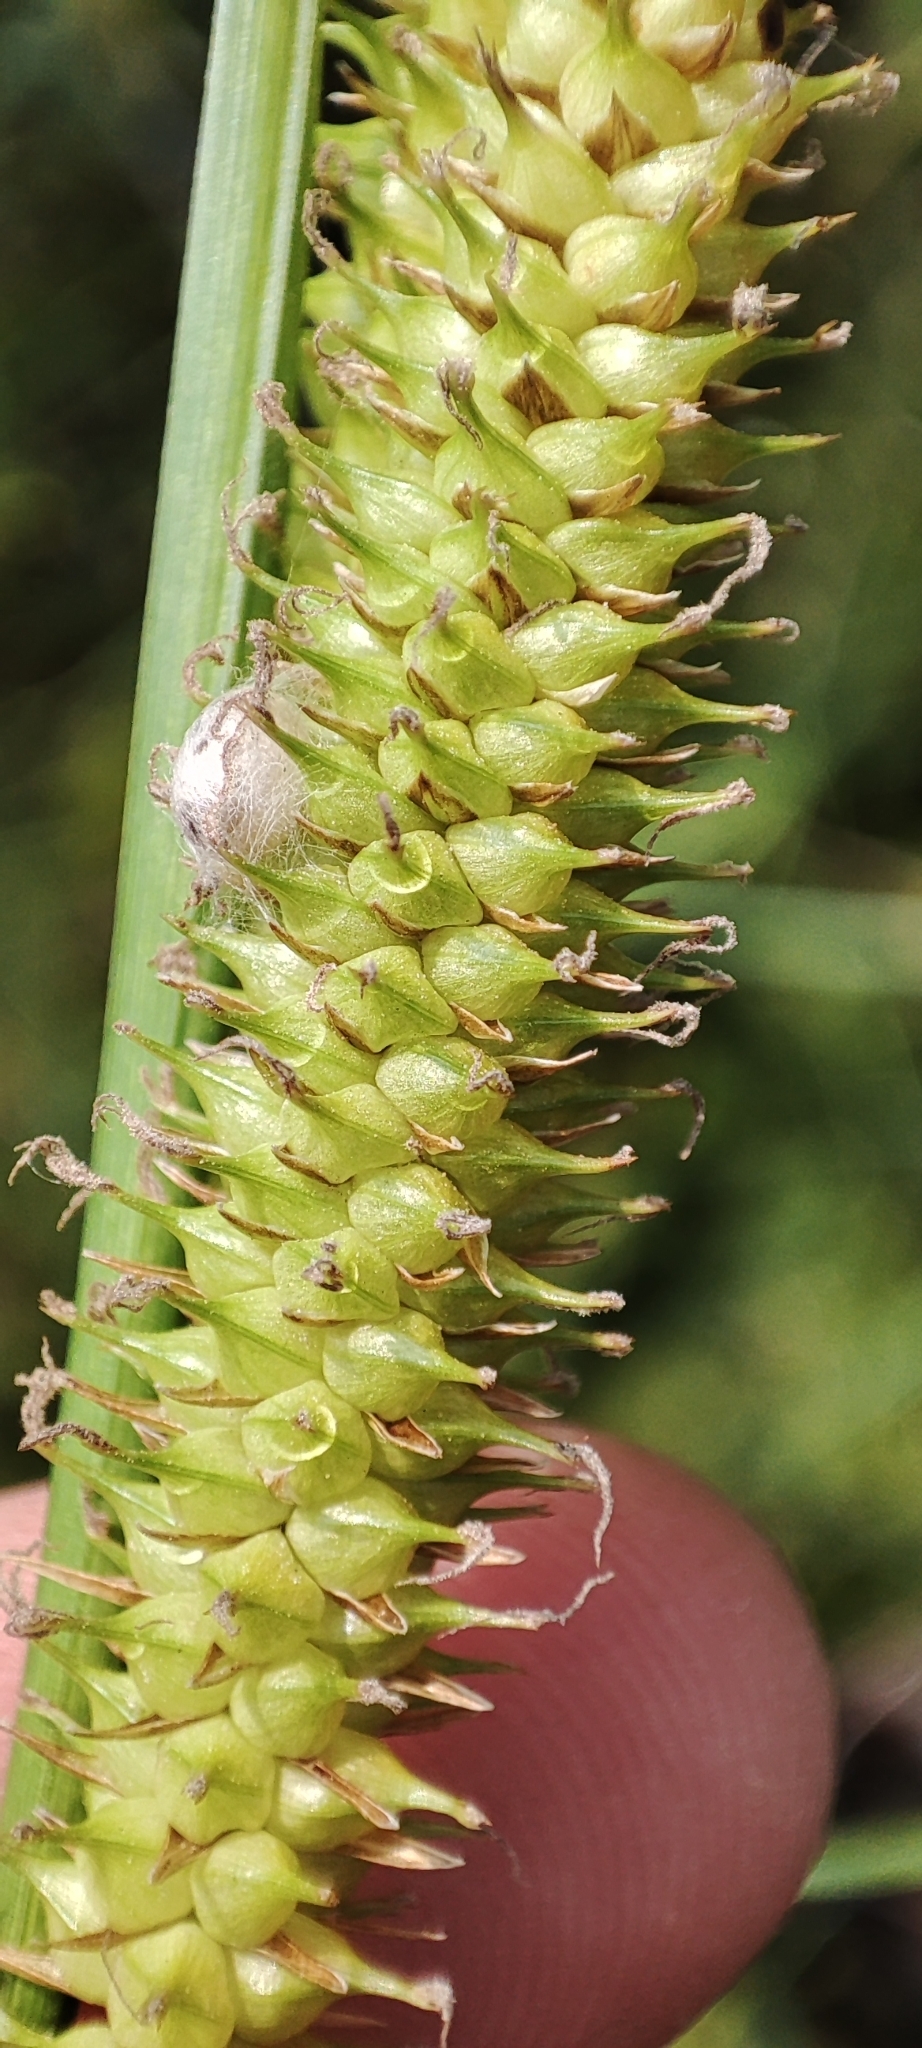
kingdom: Plantae
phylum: Tracheophyta
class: Liliopsida
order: Poales
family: Cyperaceae
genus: Carex
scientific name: Carex rostrata
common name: Bottle sedge
